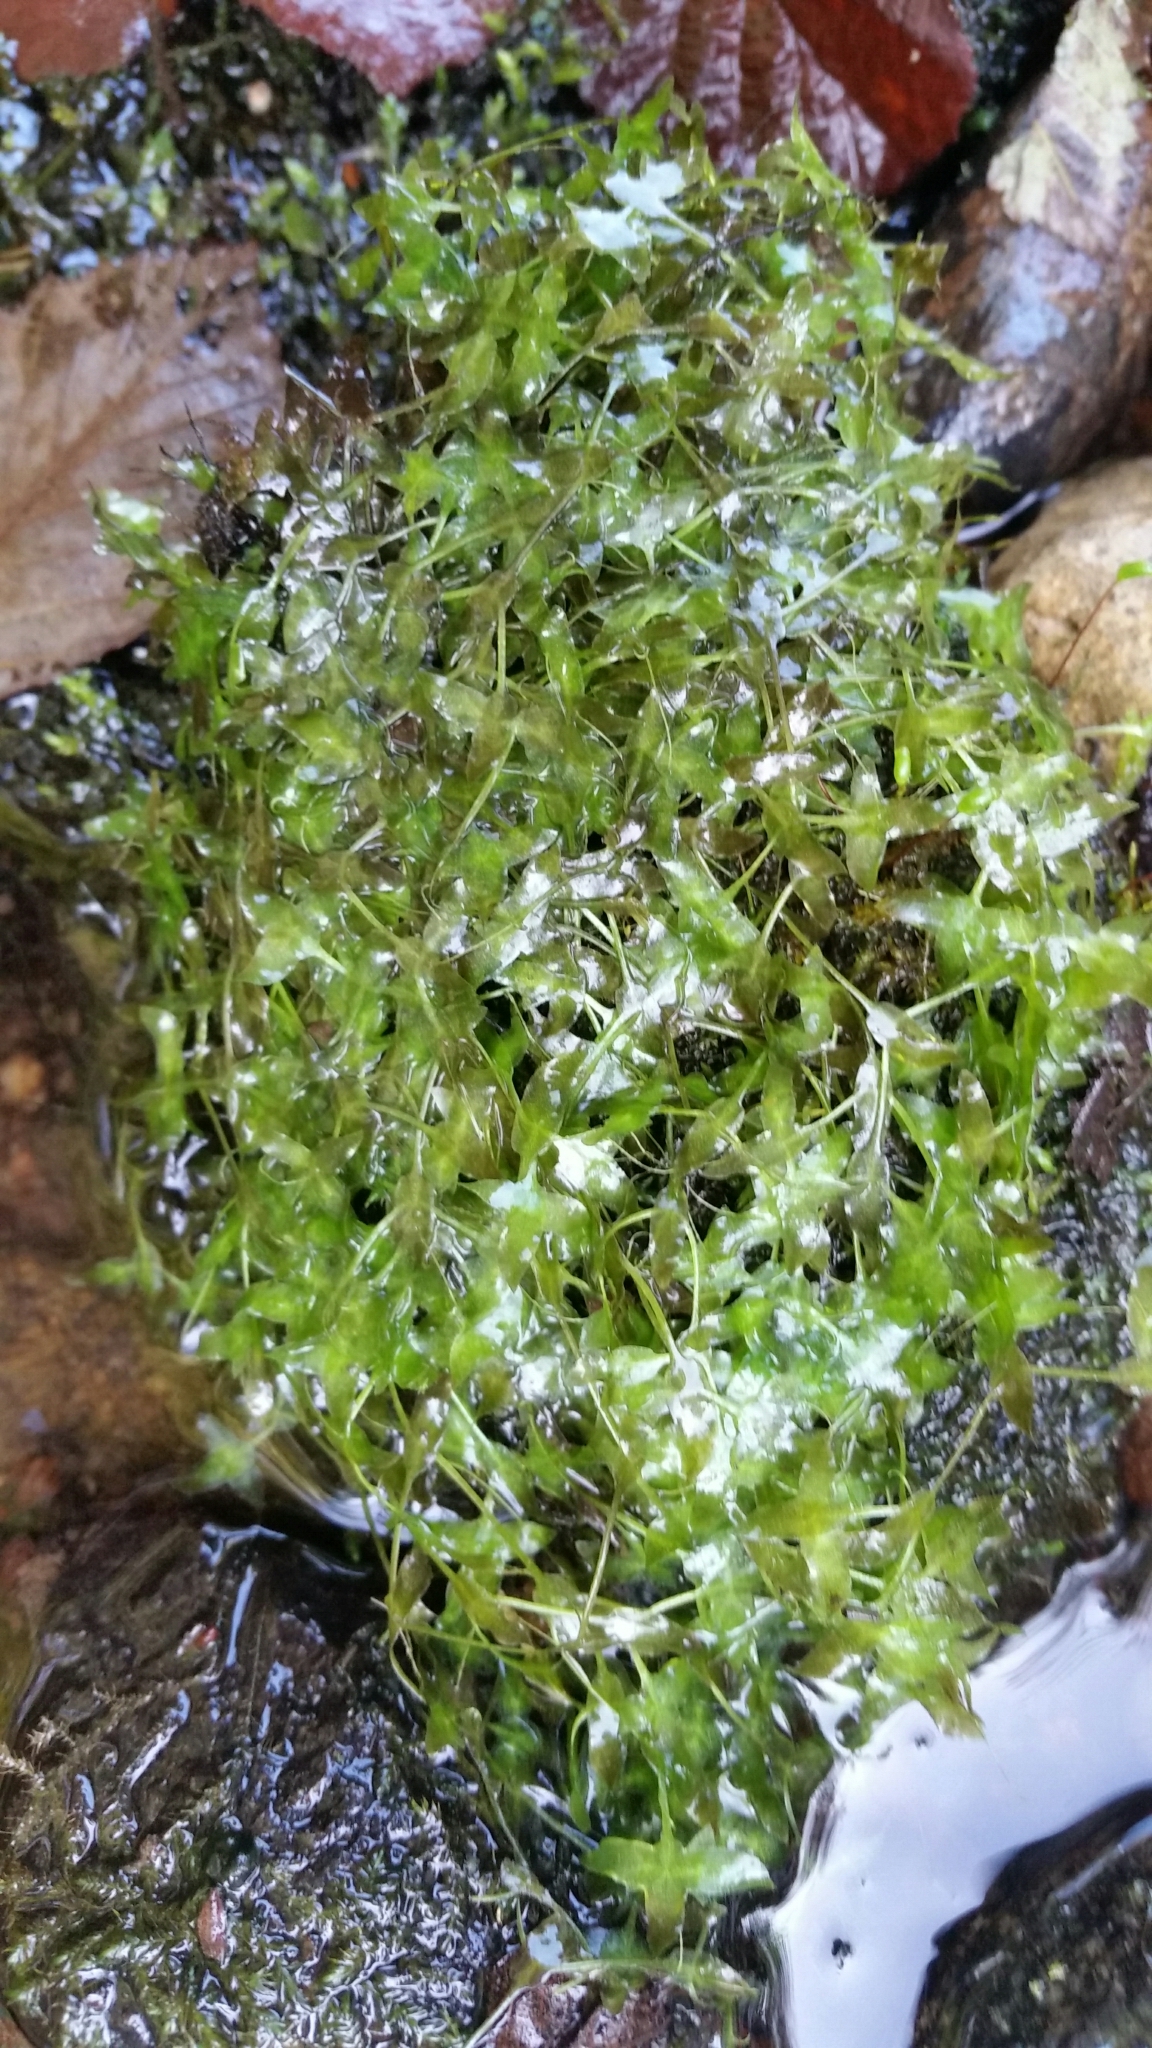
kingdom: Plantae
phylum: Tracheophyta
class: Liliopsida
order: Alismatales
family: Araceae
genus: Lemna
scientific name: Lemna trisulca
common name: Ivy-leaved duckweed
